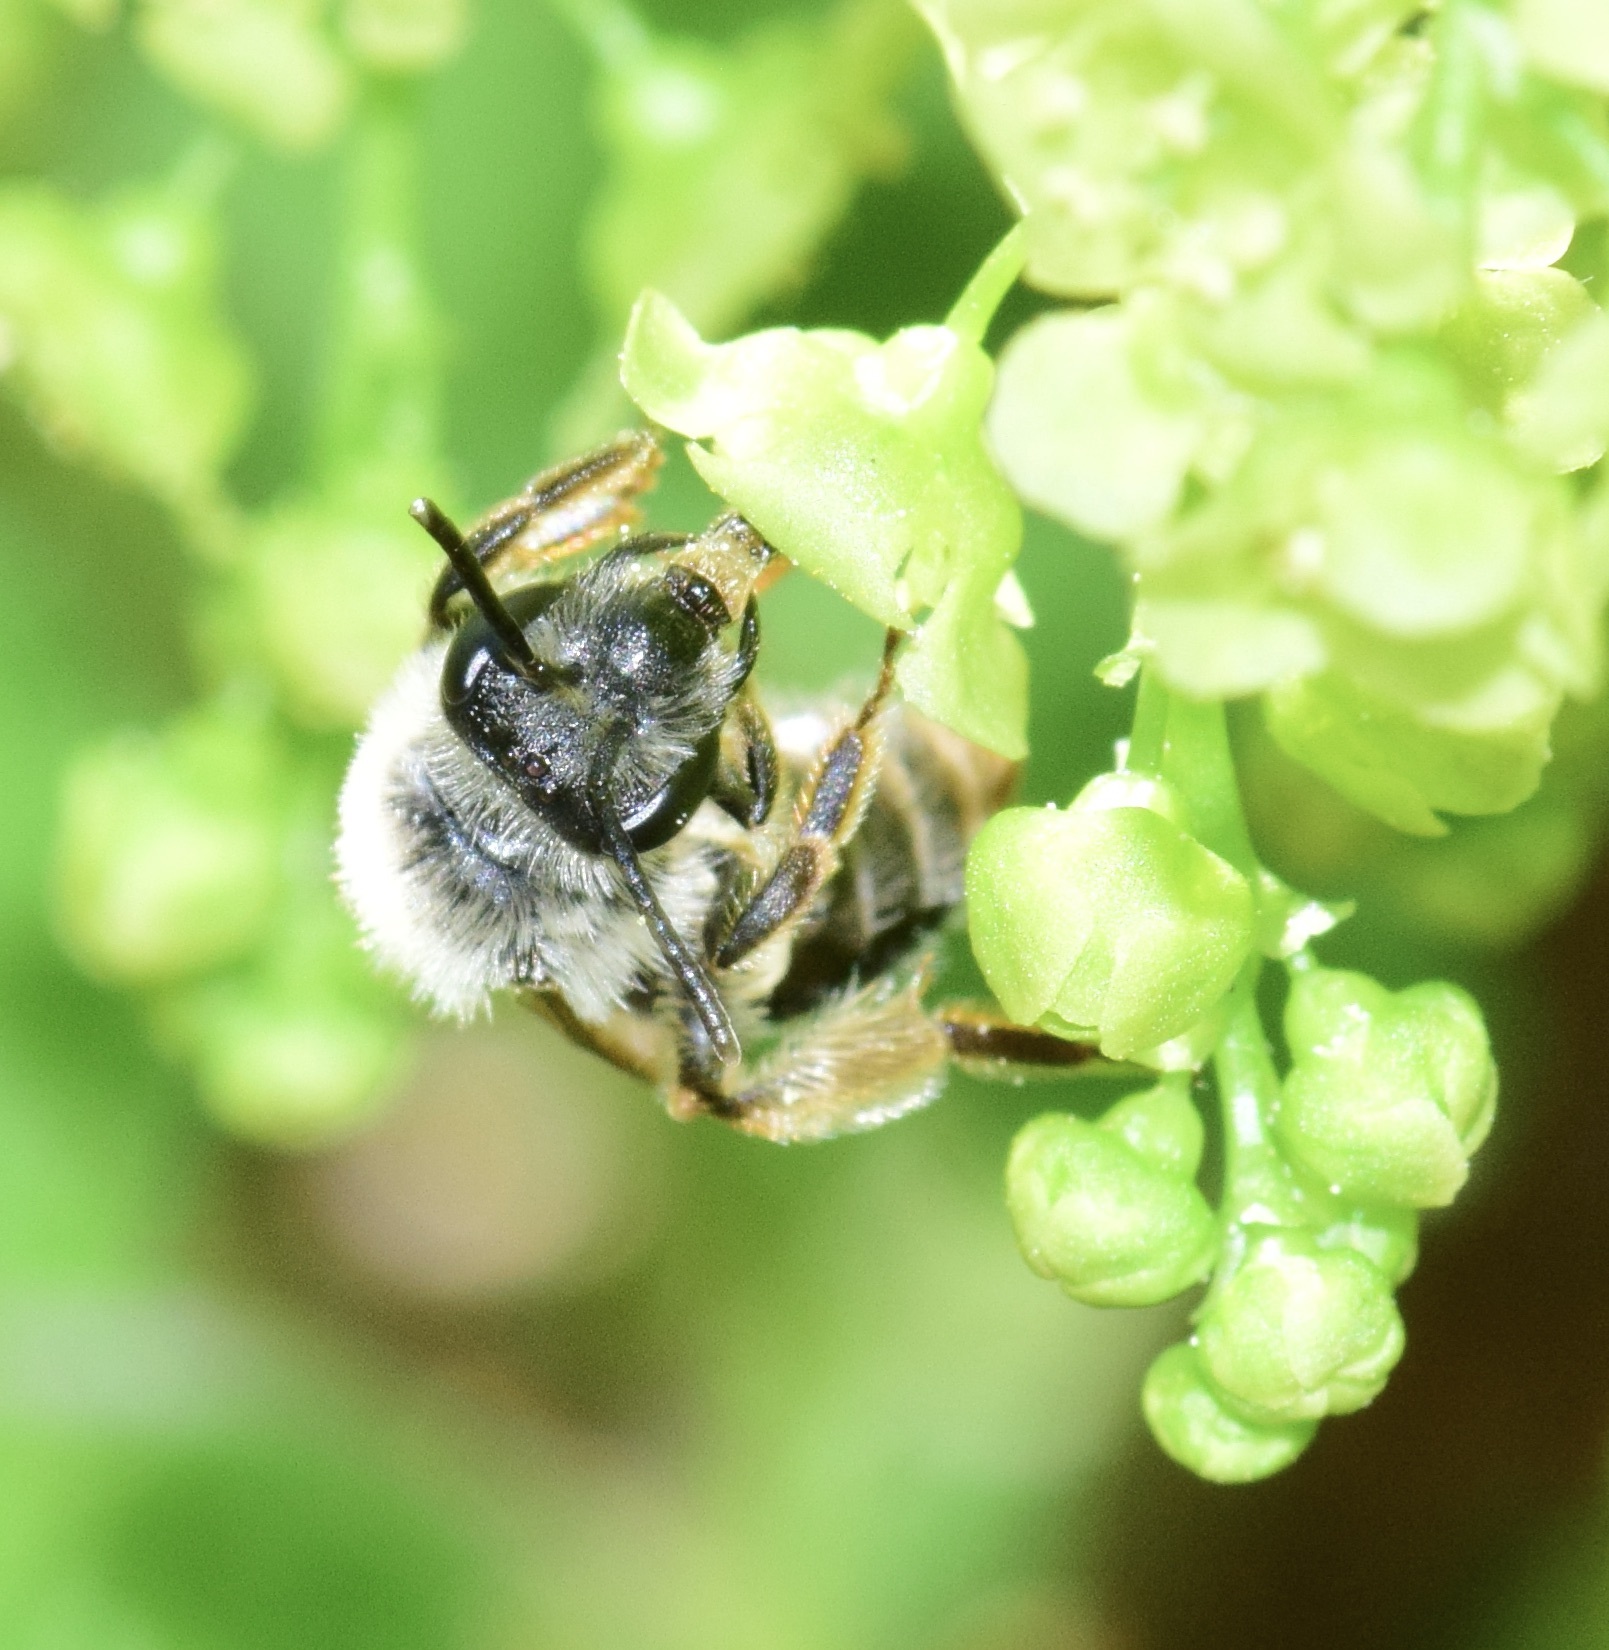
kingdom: Animalia
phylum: Arthropoda
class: Insecta
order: Hymenoptera
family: Andrenidae
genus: Andrena
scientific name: Andrena rufosignata
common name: Brown-fovea miner
